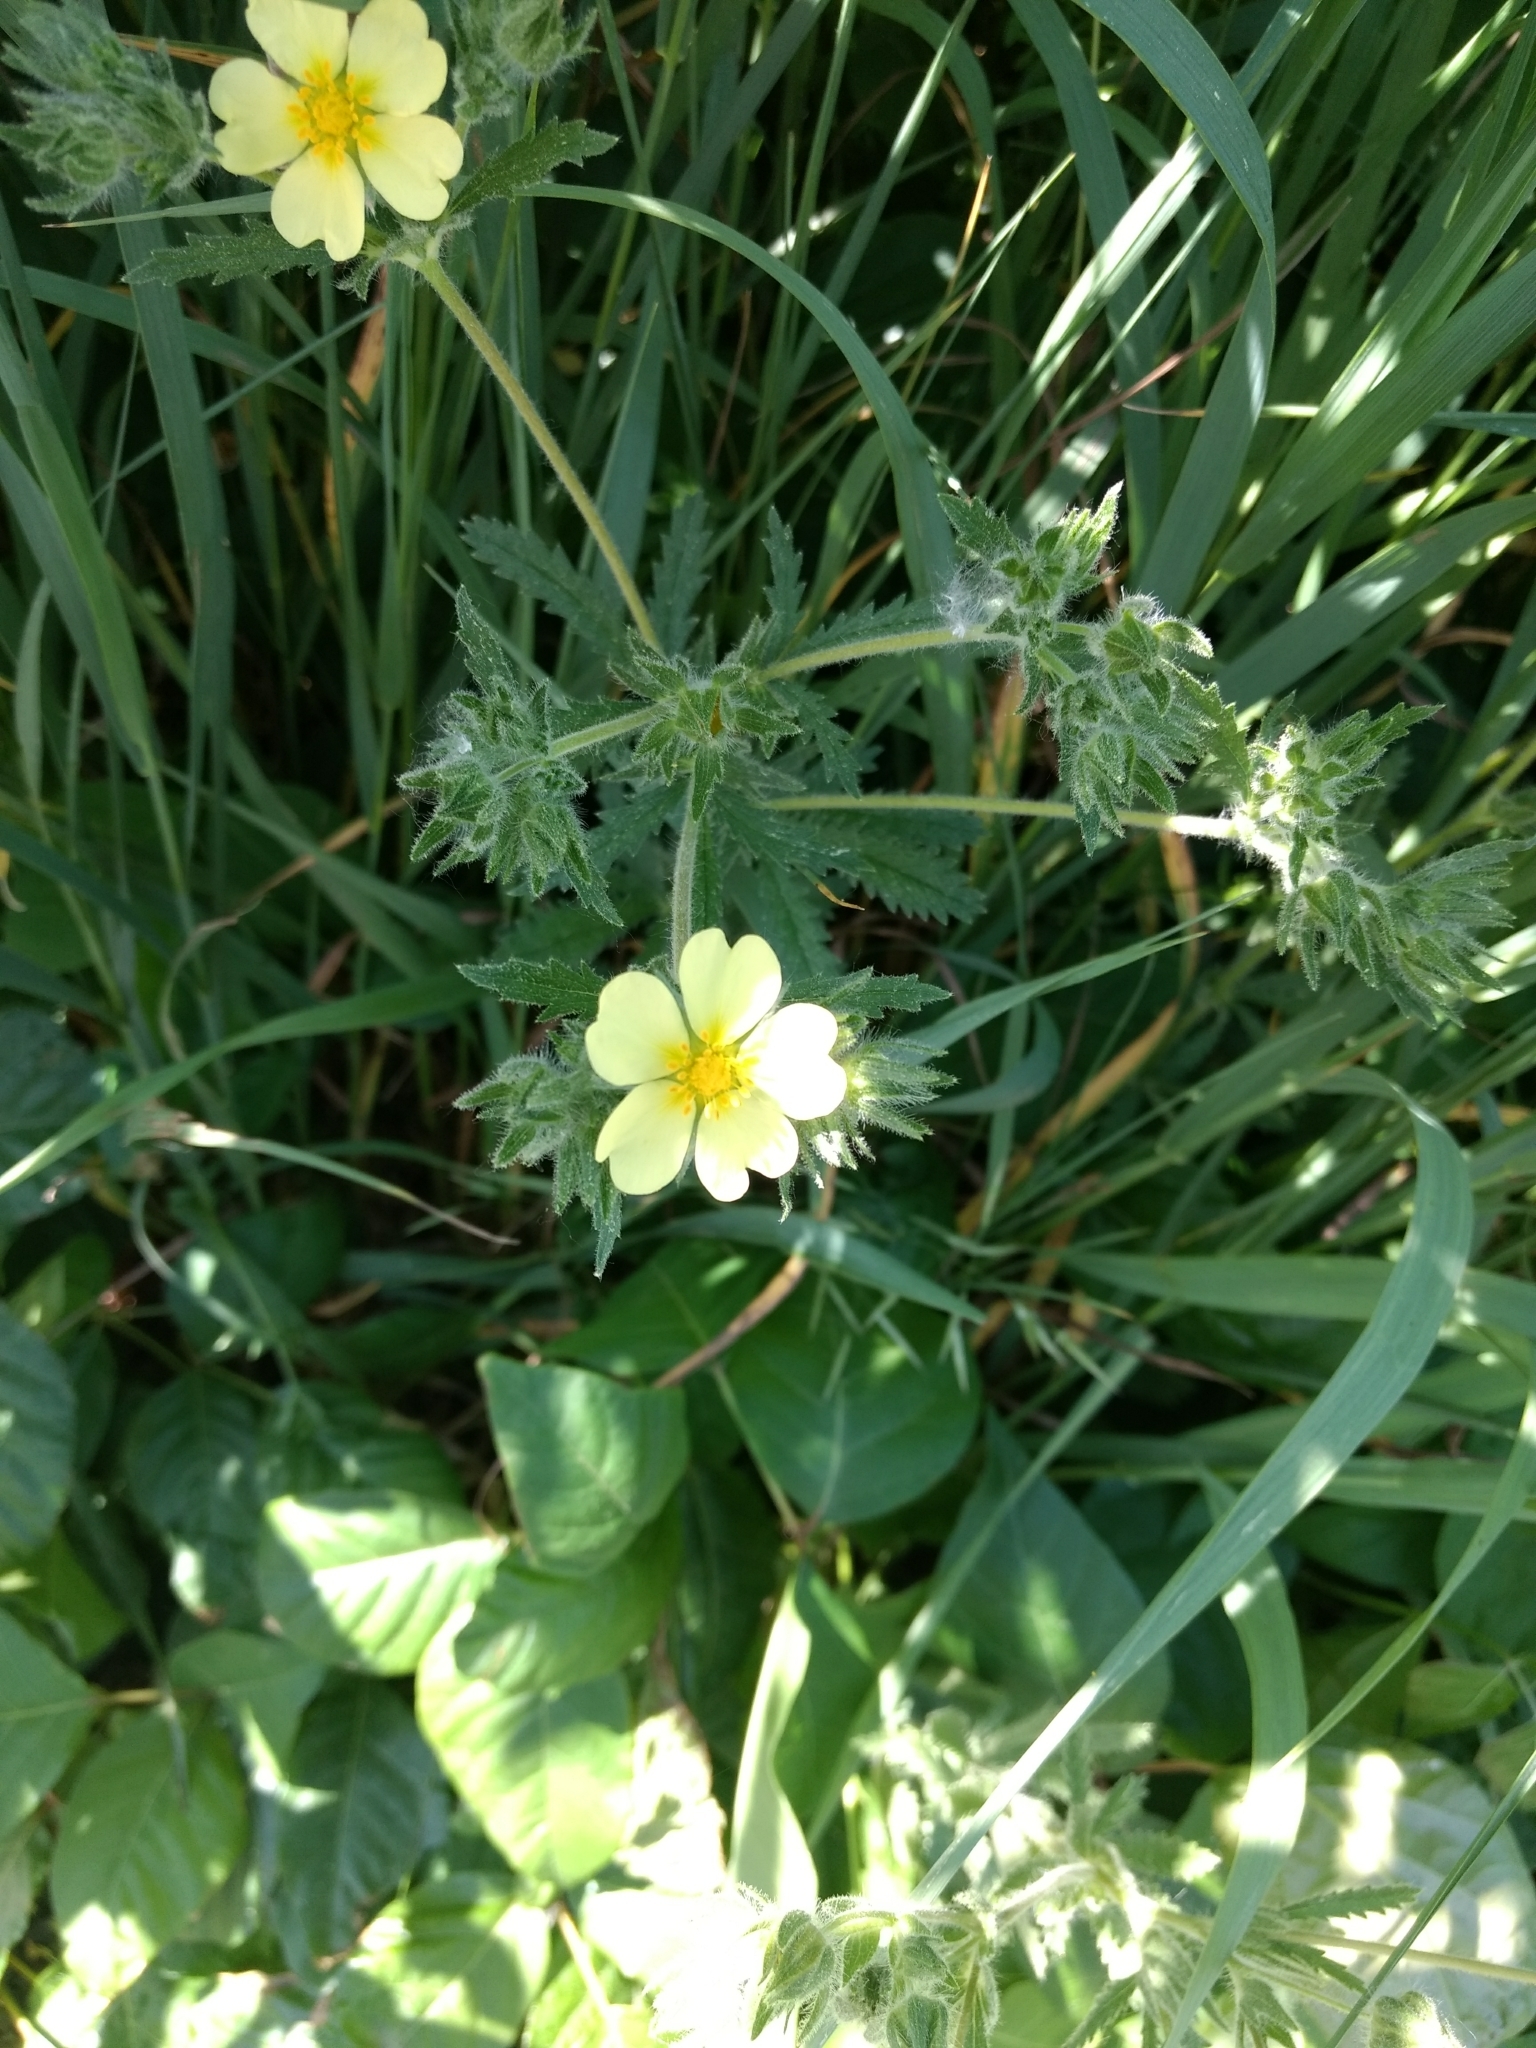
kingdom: Plantae
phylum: Tracheophyta
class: Magnoliopsida
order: Rosales
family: Rosaceae
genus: Potentilla
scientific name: Potentilla recta
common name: Sulphur cinquefoil
